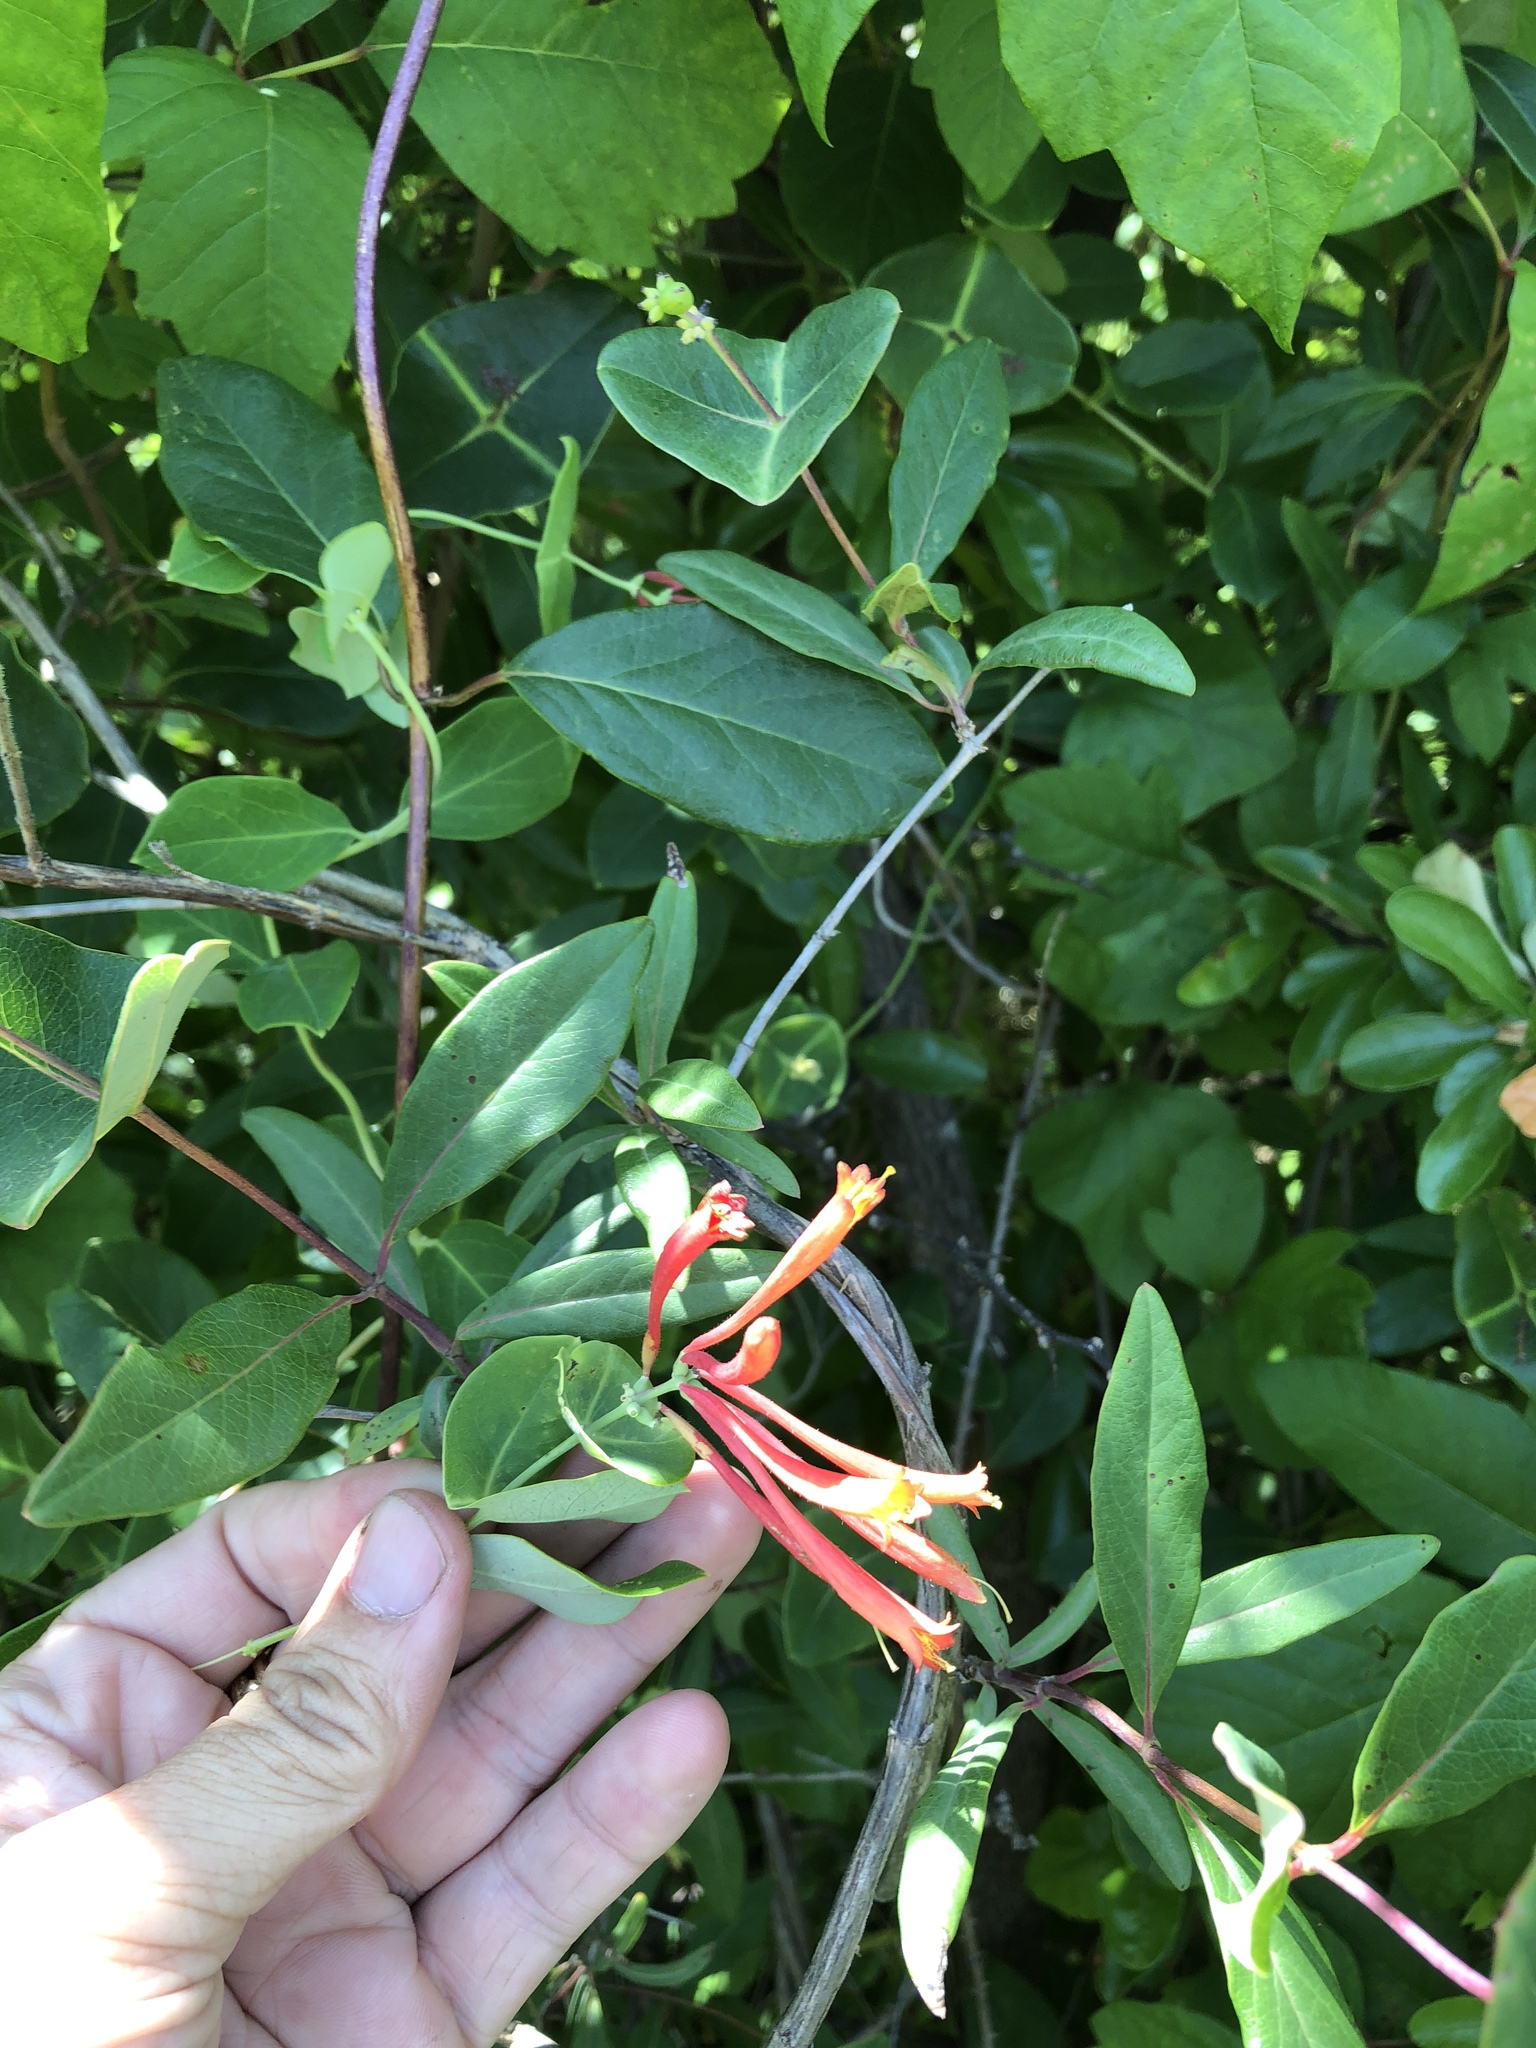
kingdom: Plantae
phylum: Tracheophyta
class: Magnoliopsida
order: Dipsacales
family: Caprifoliaceae
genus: Lonicera
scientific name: Lonicera sempervirens
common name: Coral honeysuckle
